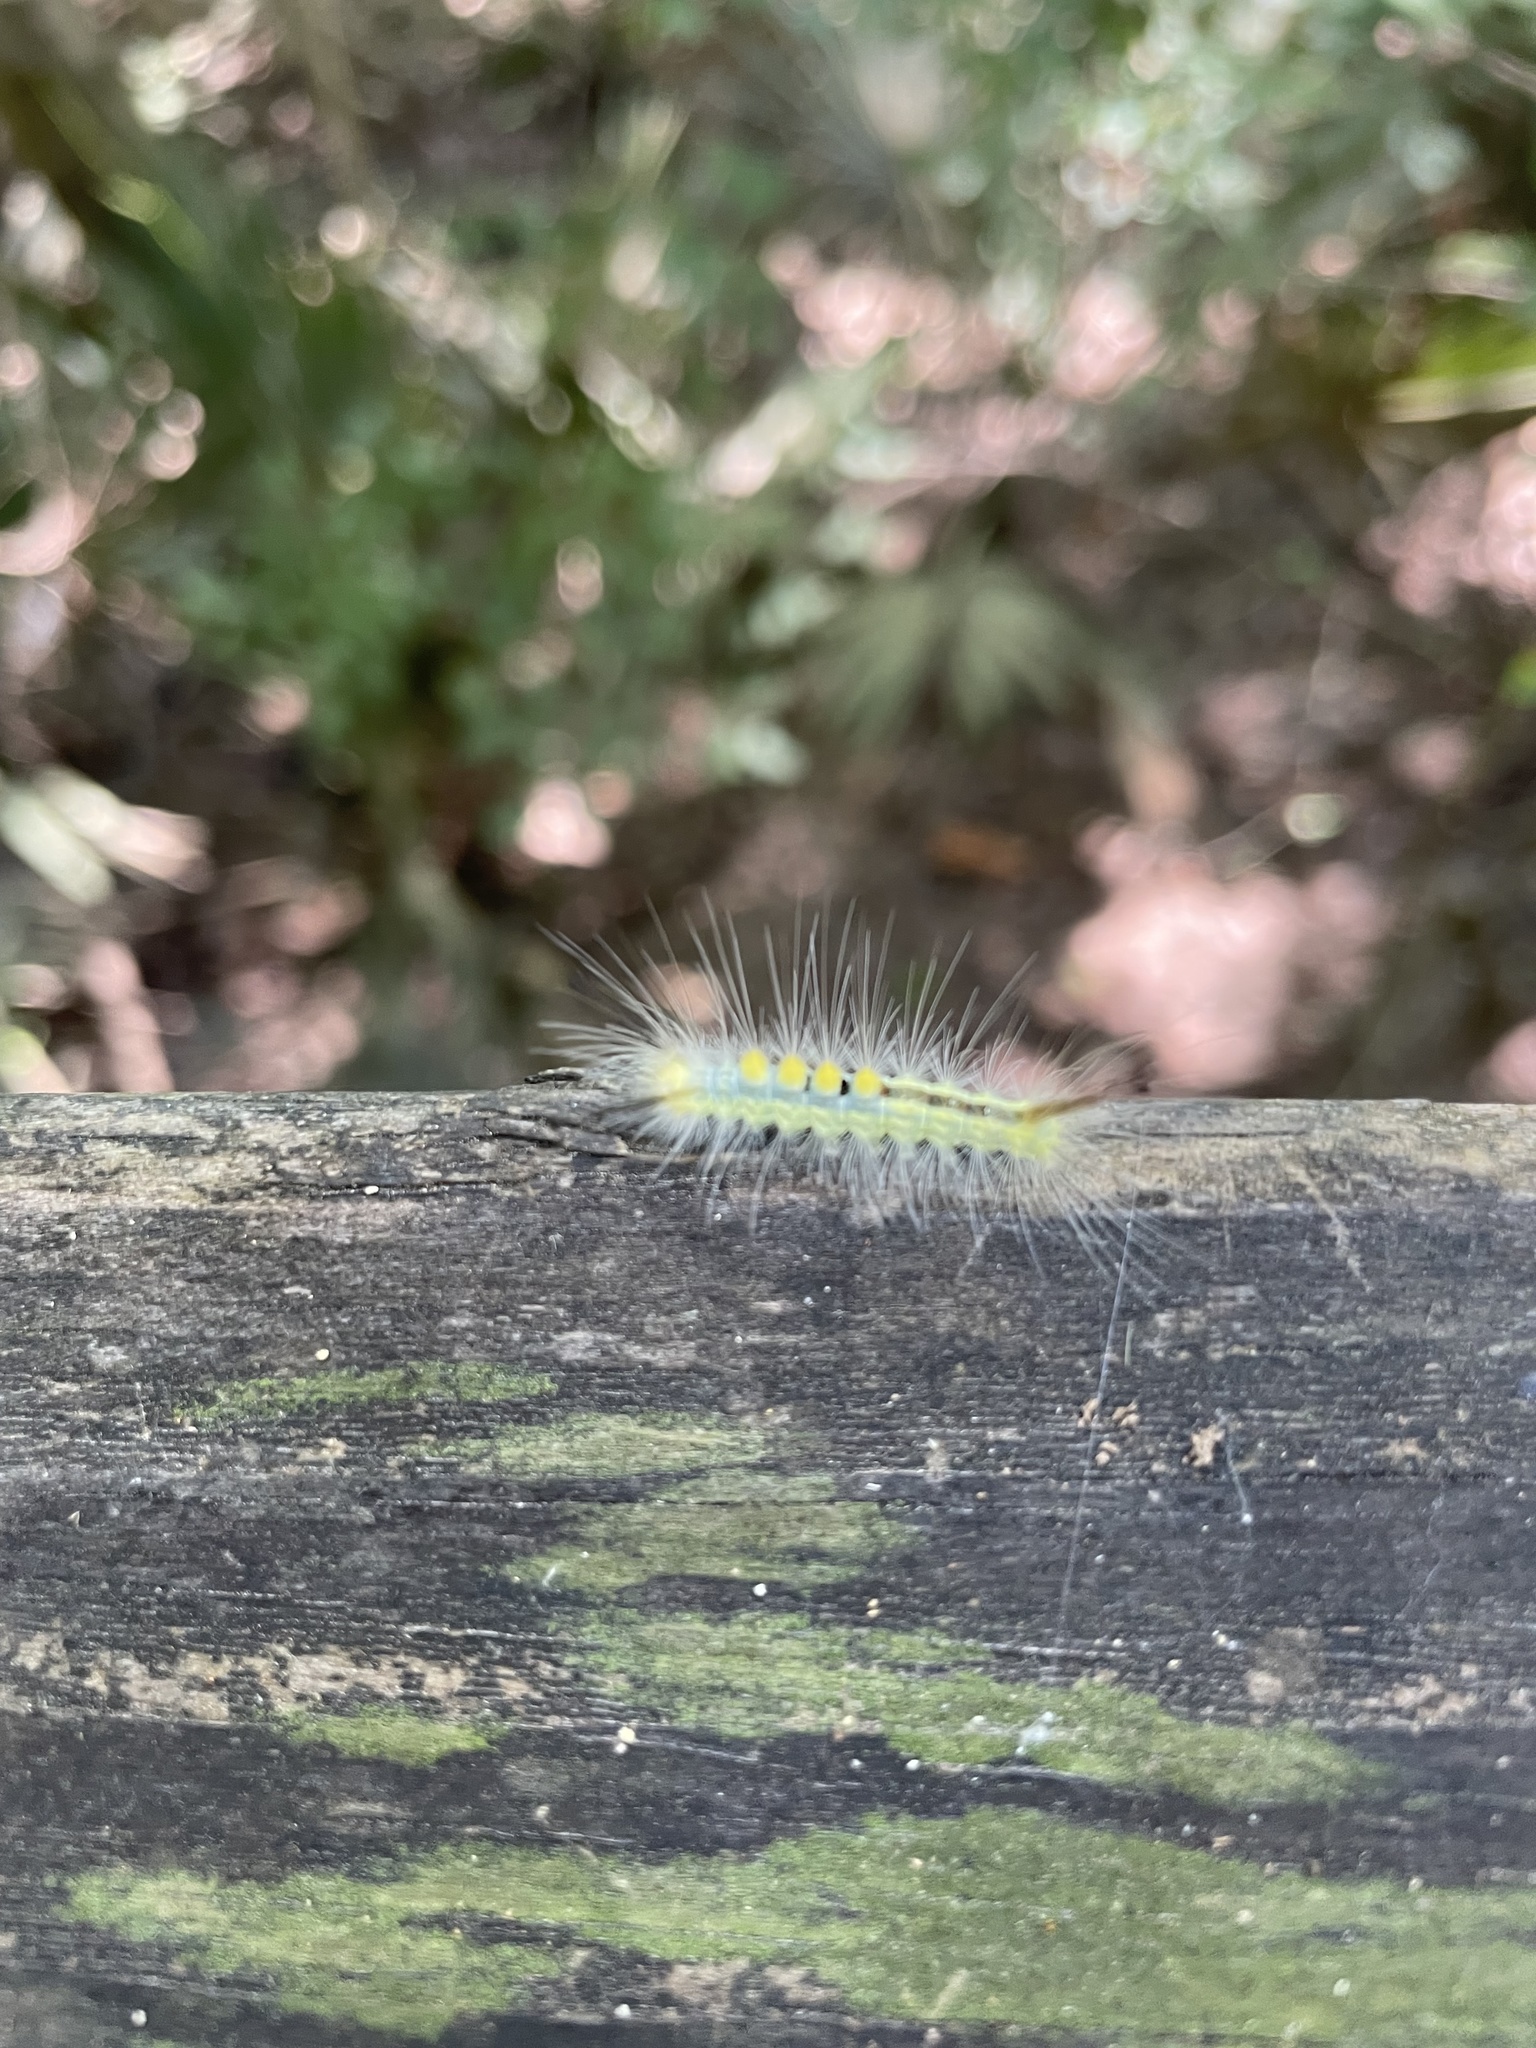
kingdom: Animalia
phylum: Arthropoda
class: Insecta
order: Lepidoptera
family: Erebidae
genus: Orgyia
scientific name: Orgyia definita
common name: Definite tussock moth
